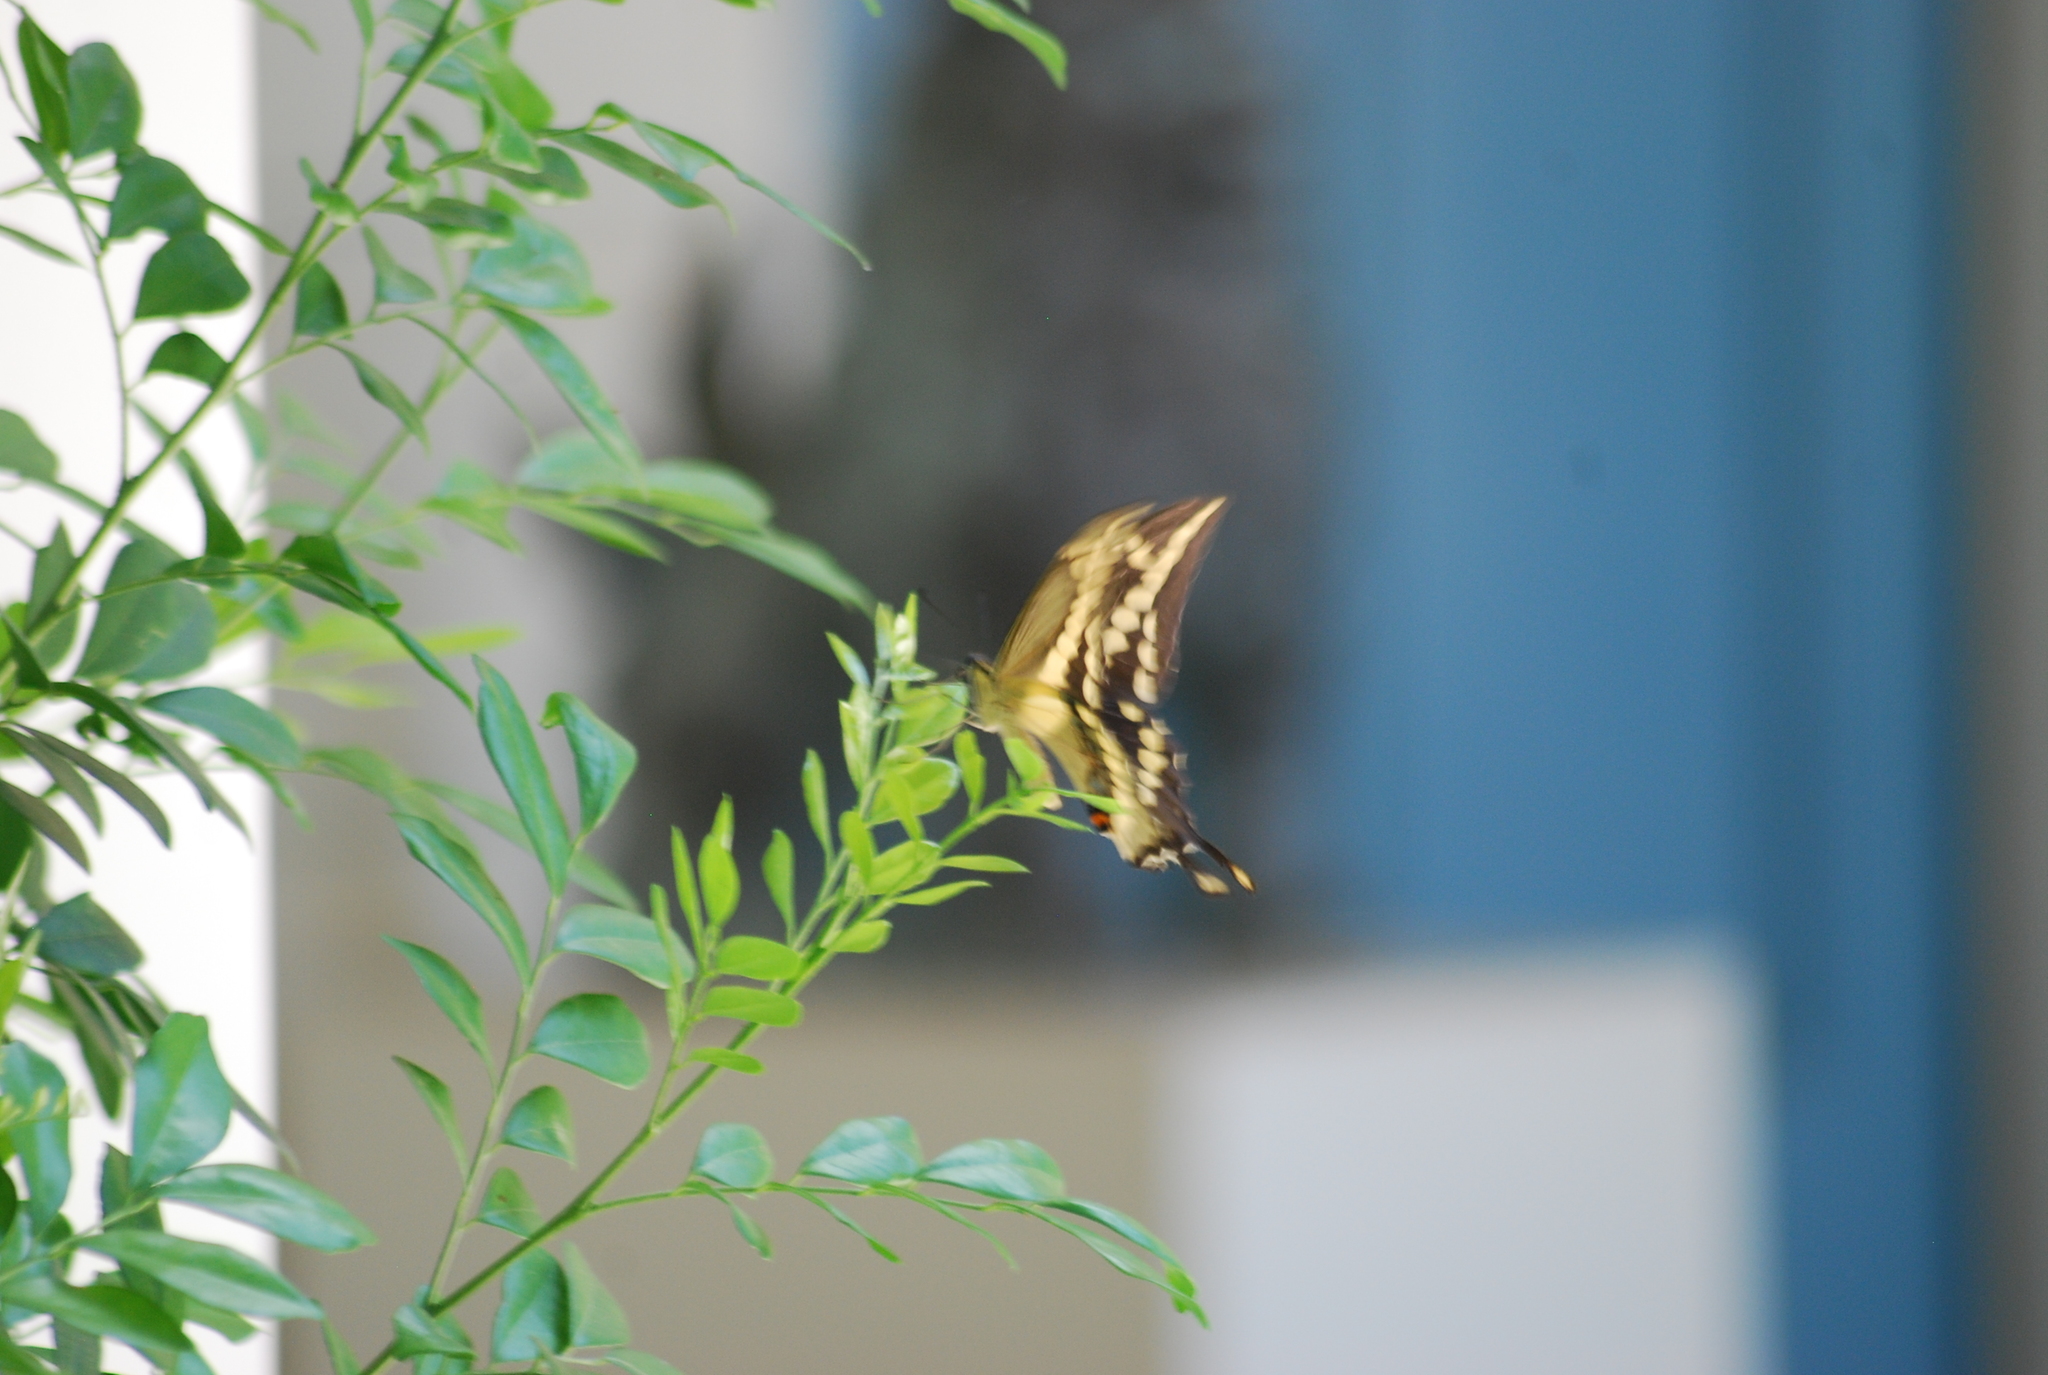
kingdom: Animalia
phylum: Arthropoda
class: Insecta
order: Lepidoptera
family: Papilionidae
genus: Papilio
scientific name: Papilio rumiko
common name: Western giant swallowtail
